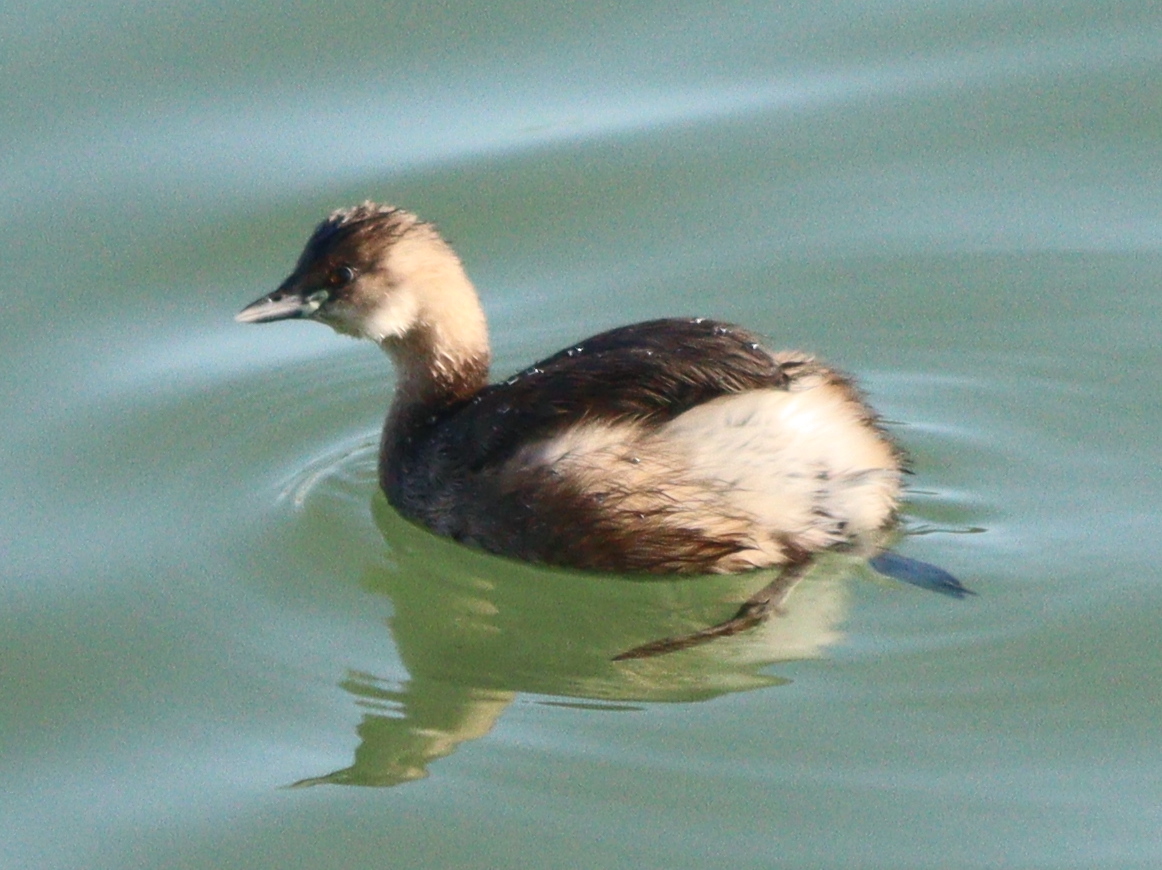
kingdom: Animalia
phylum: Chordata
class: Aves
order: Podicipediformes
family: Podicipedidae
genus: Tachybaptus
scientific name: Tachybaptus ruficollis
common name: Little grebe
